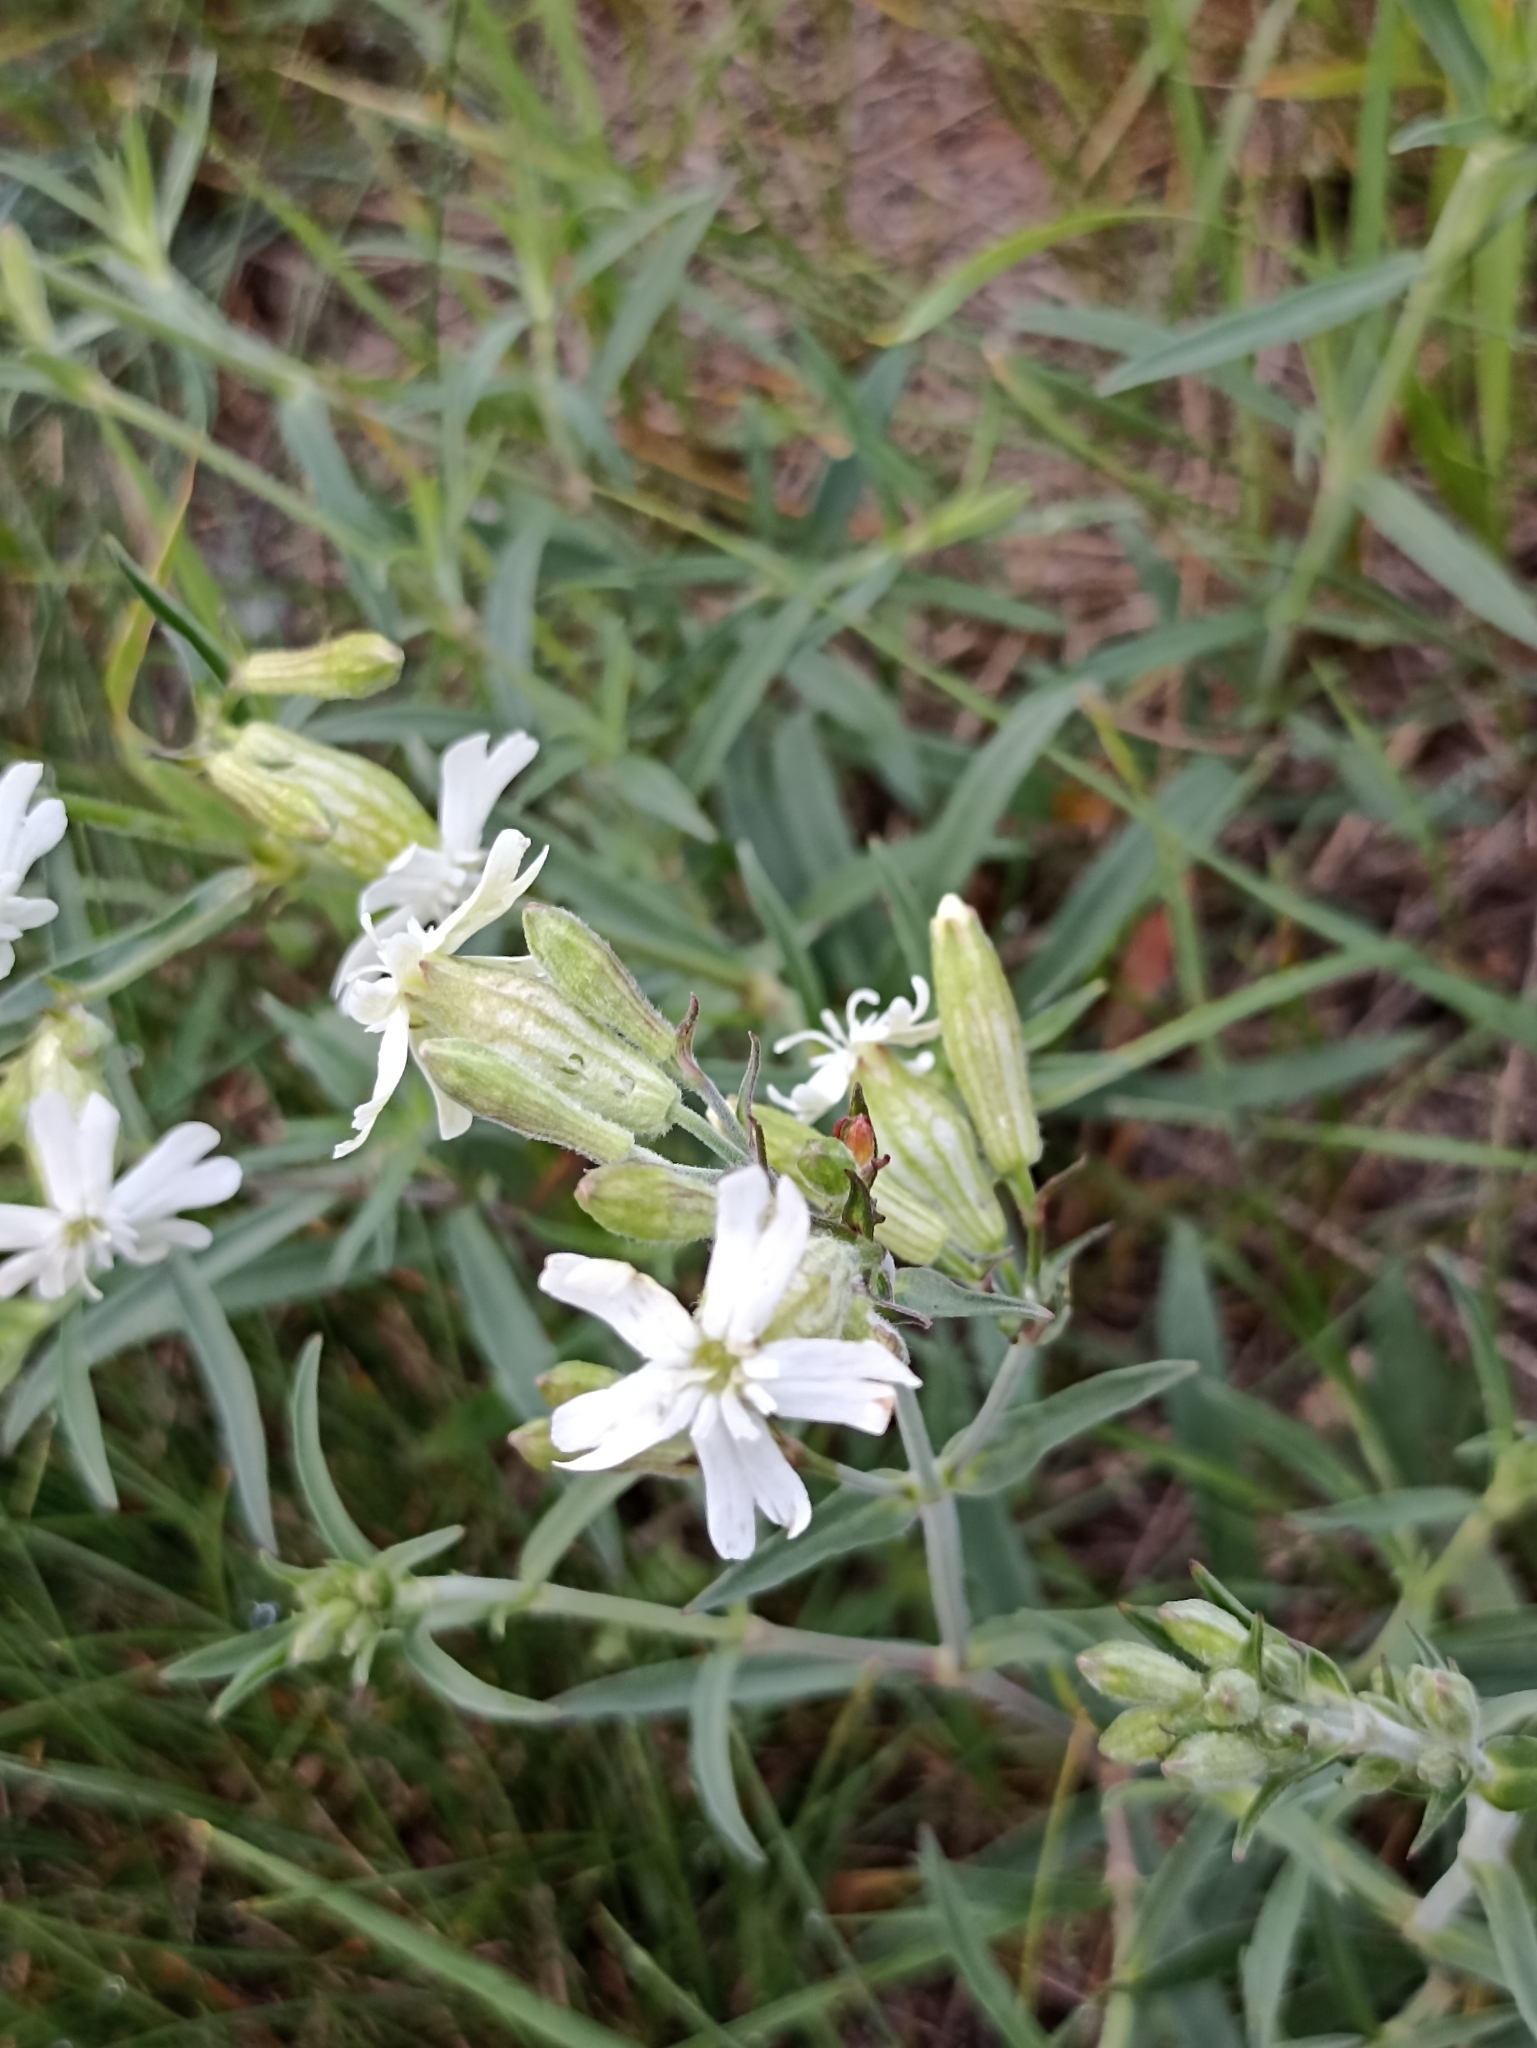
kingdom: Plantae
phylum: Tracheophyta
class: Magnoliopsida
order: Caryophyllales
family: Caryophyllaceae
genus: Silene
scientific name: Silene amoena
